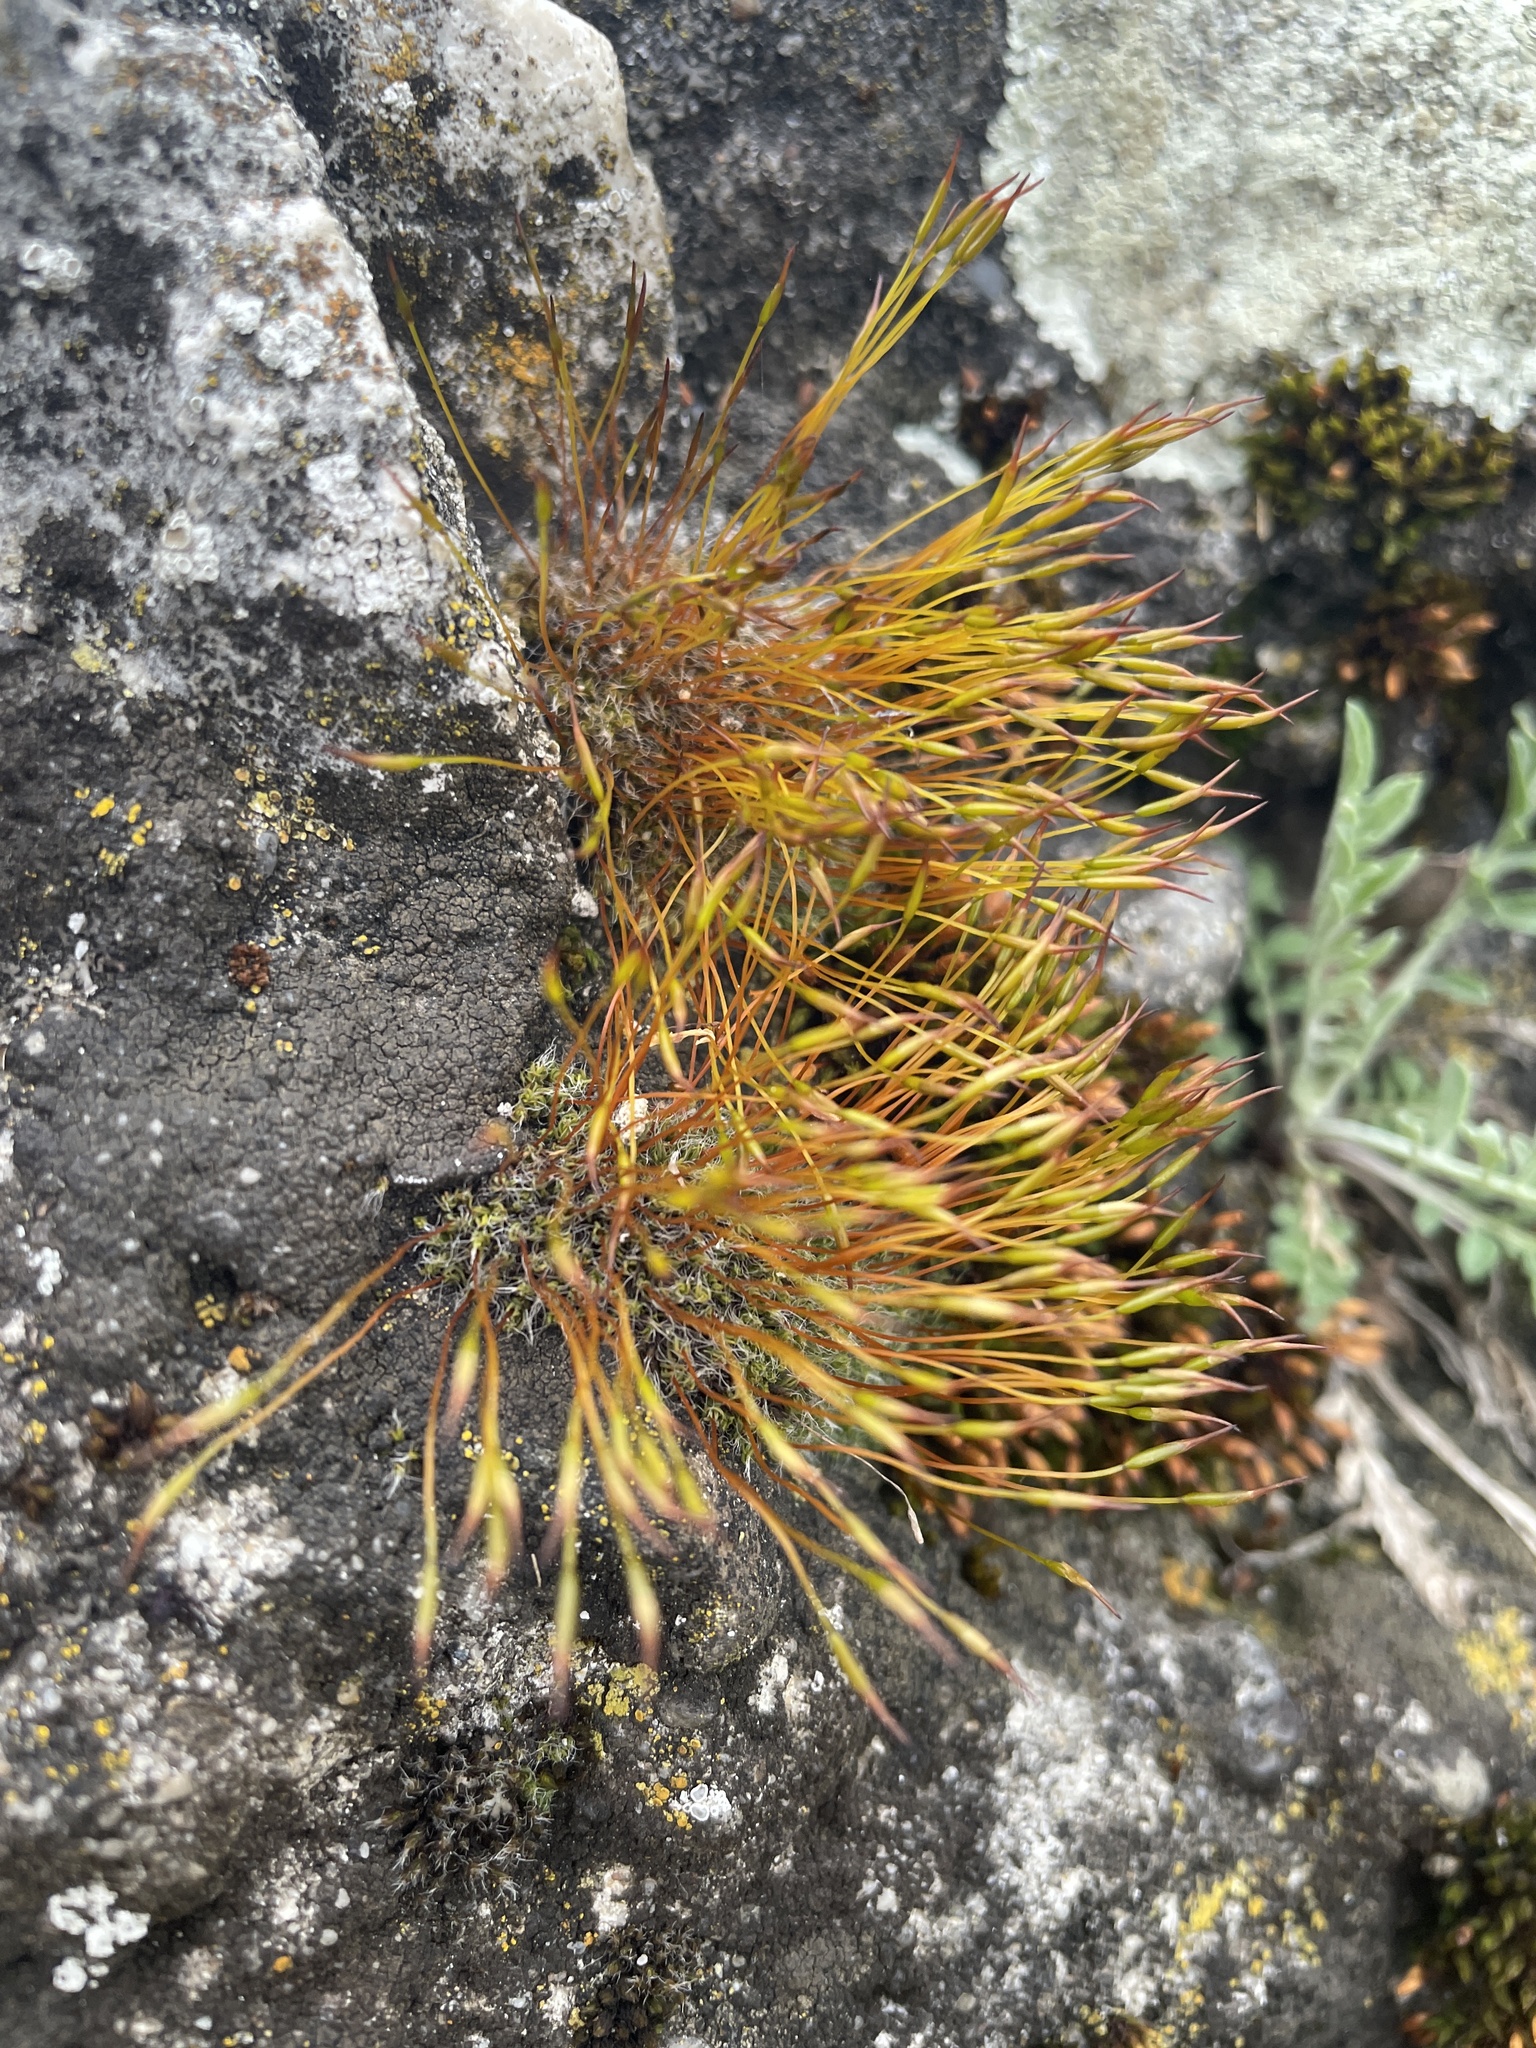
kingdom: Plantae
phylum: Bryophyta
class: Bryopsida
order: Pottiales
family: Pottiaceae
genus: Tortula
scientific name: Tortula muralis
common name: Wall screw-moss
